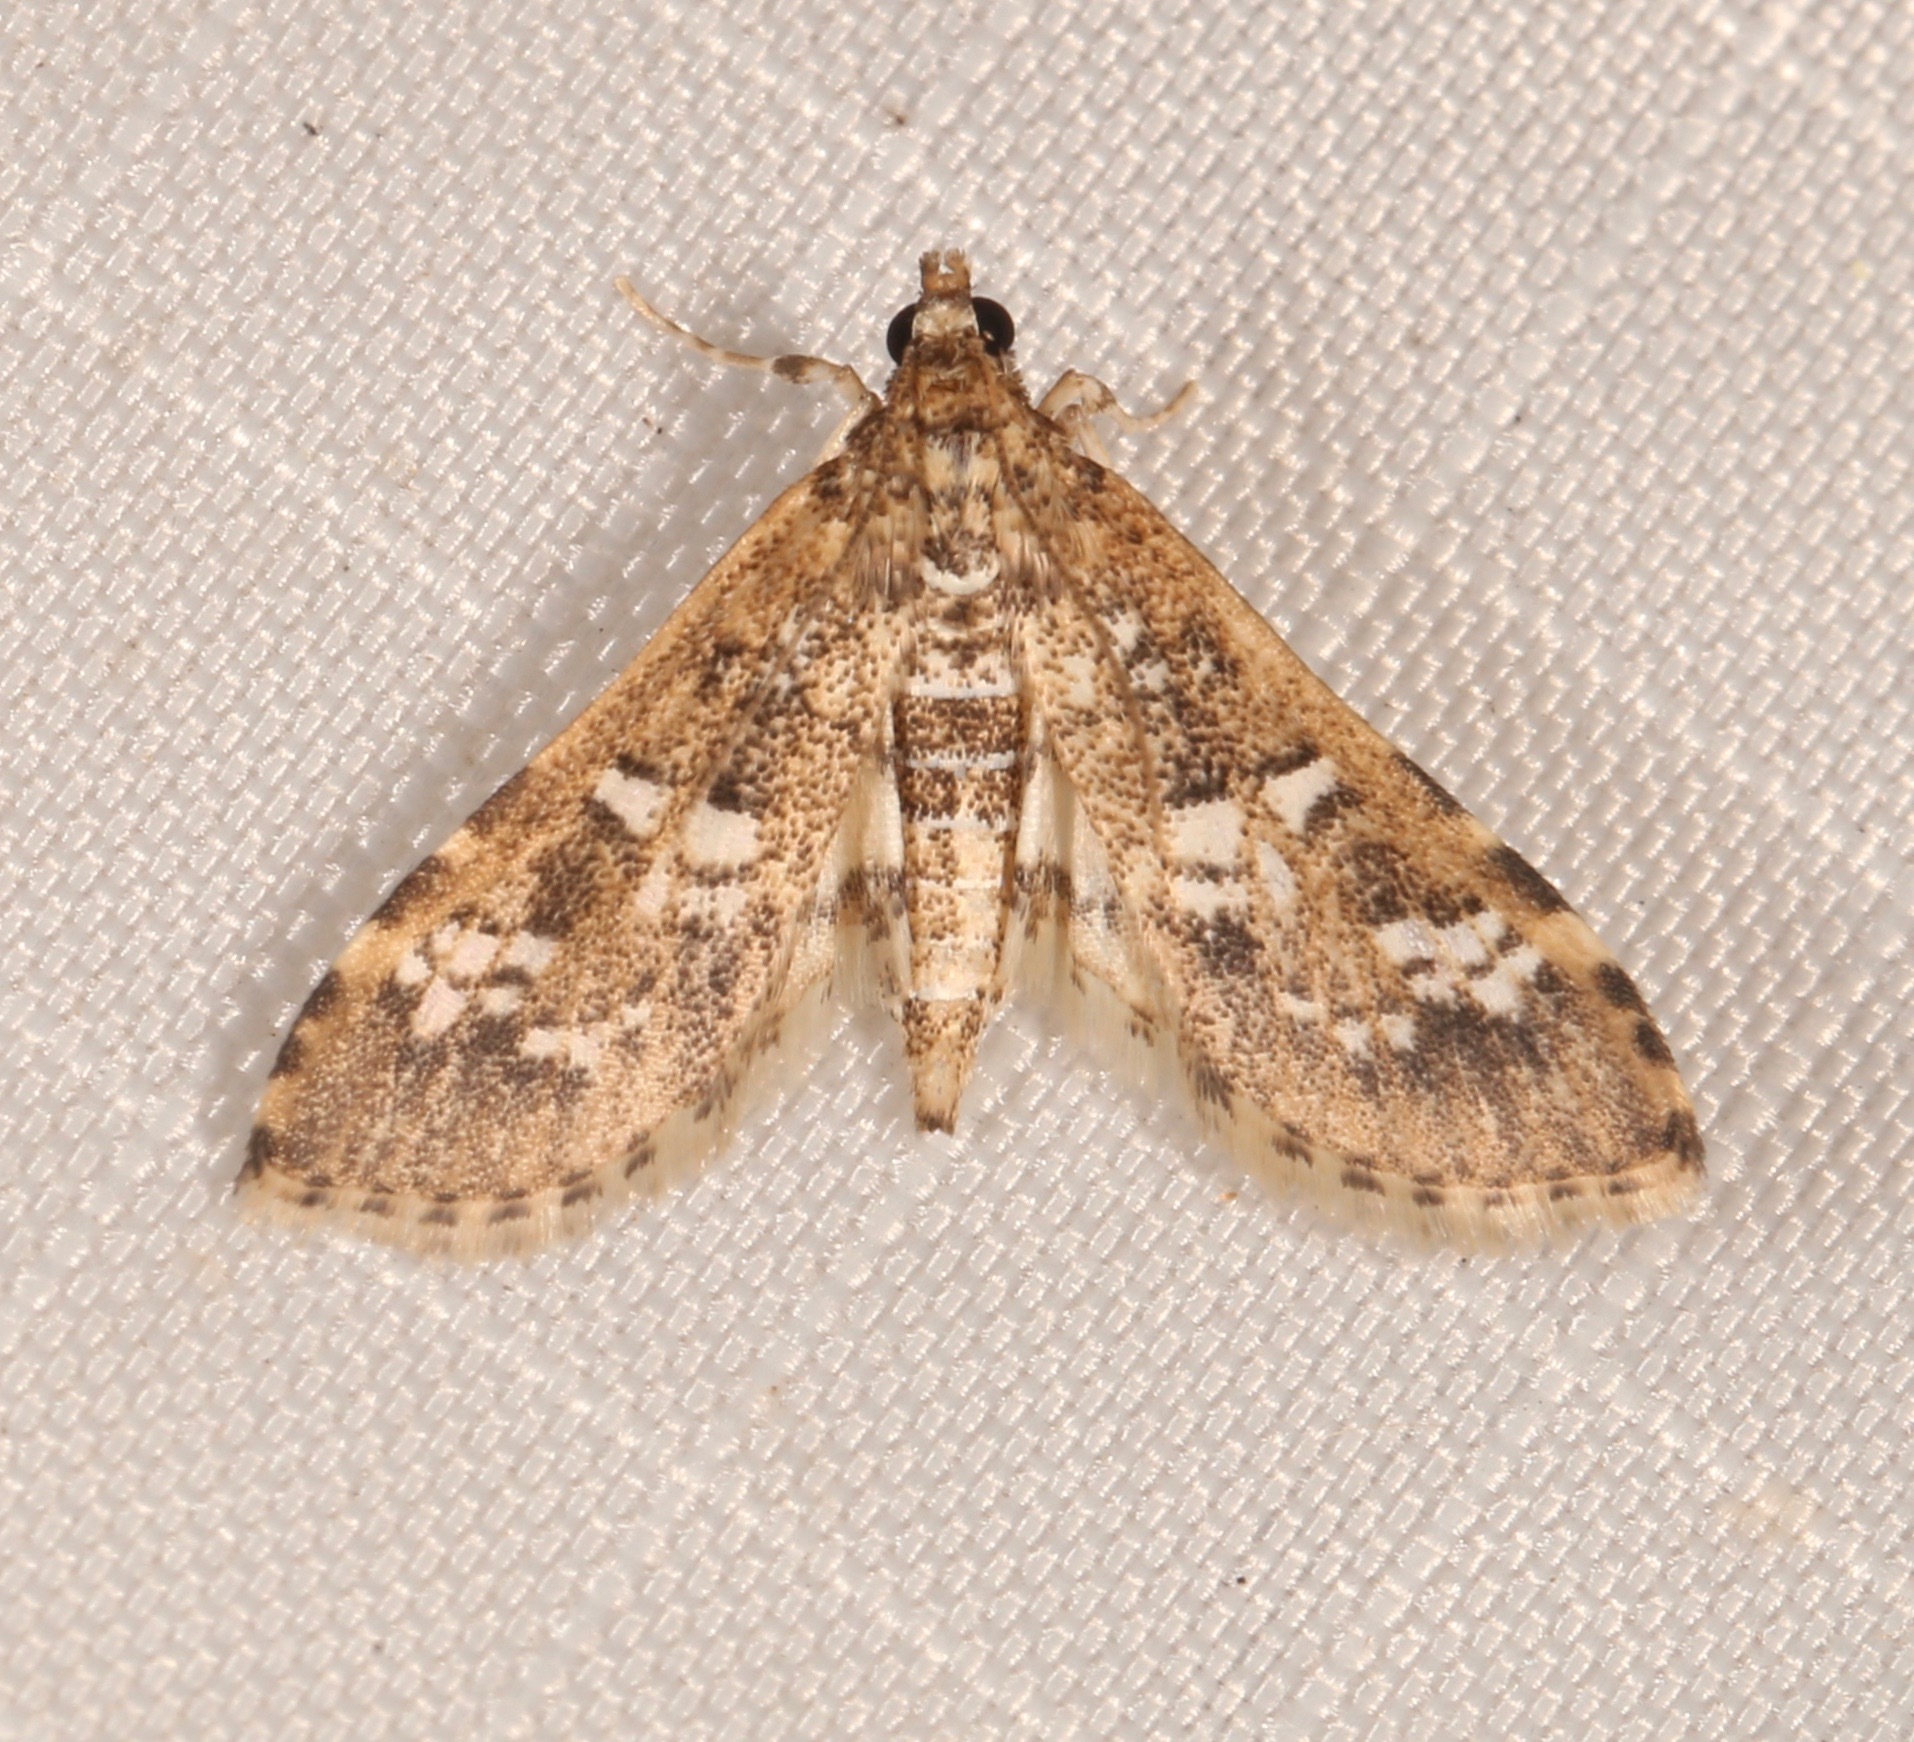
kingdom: Animalia
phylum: Arthropoda
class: Insecta
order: Lepidoptera
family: Crambidae
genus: Samea
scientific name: Samea multiplicalis
